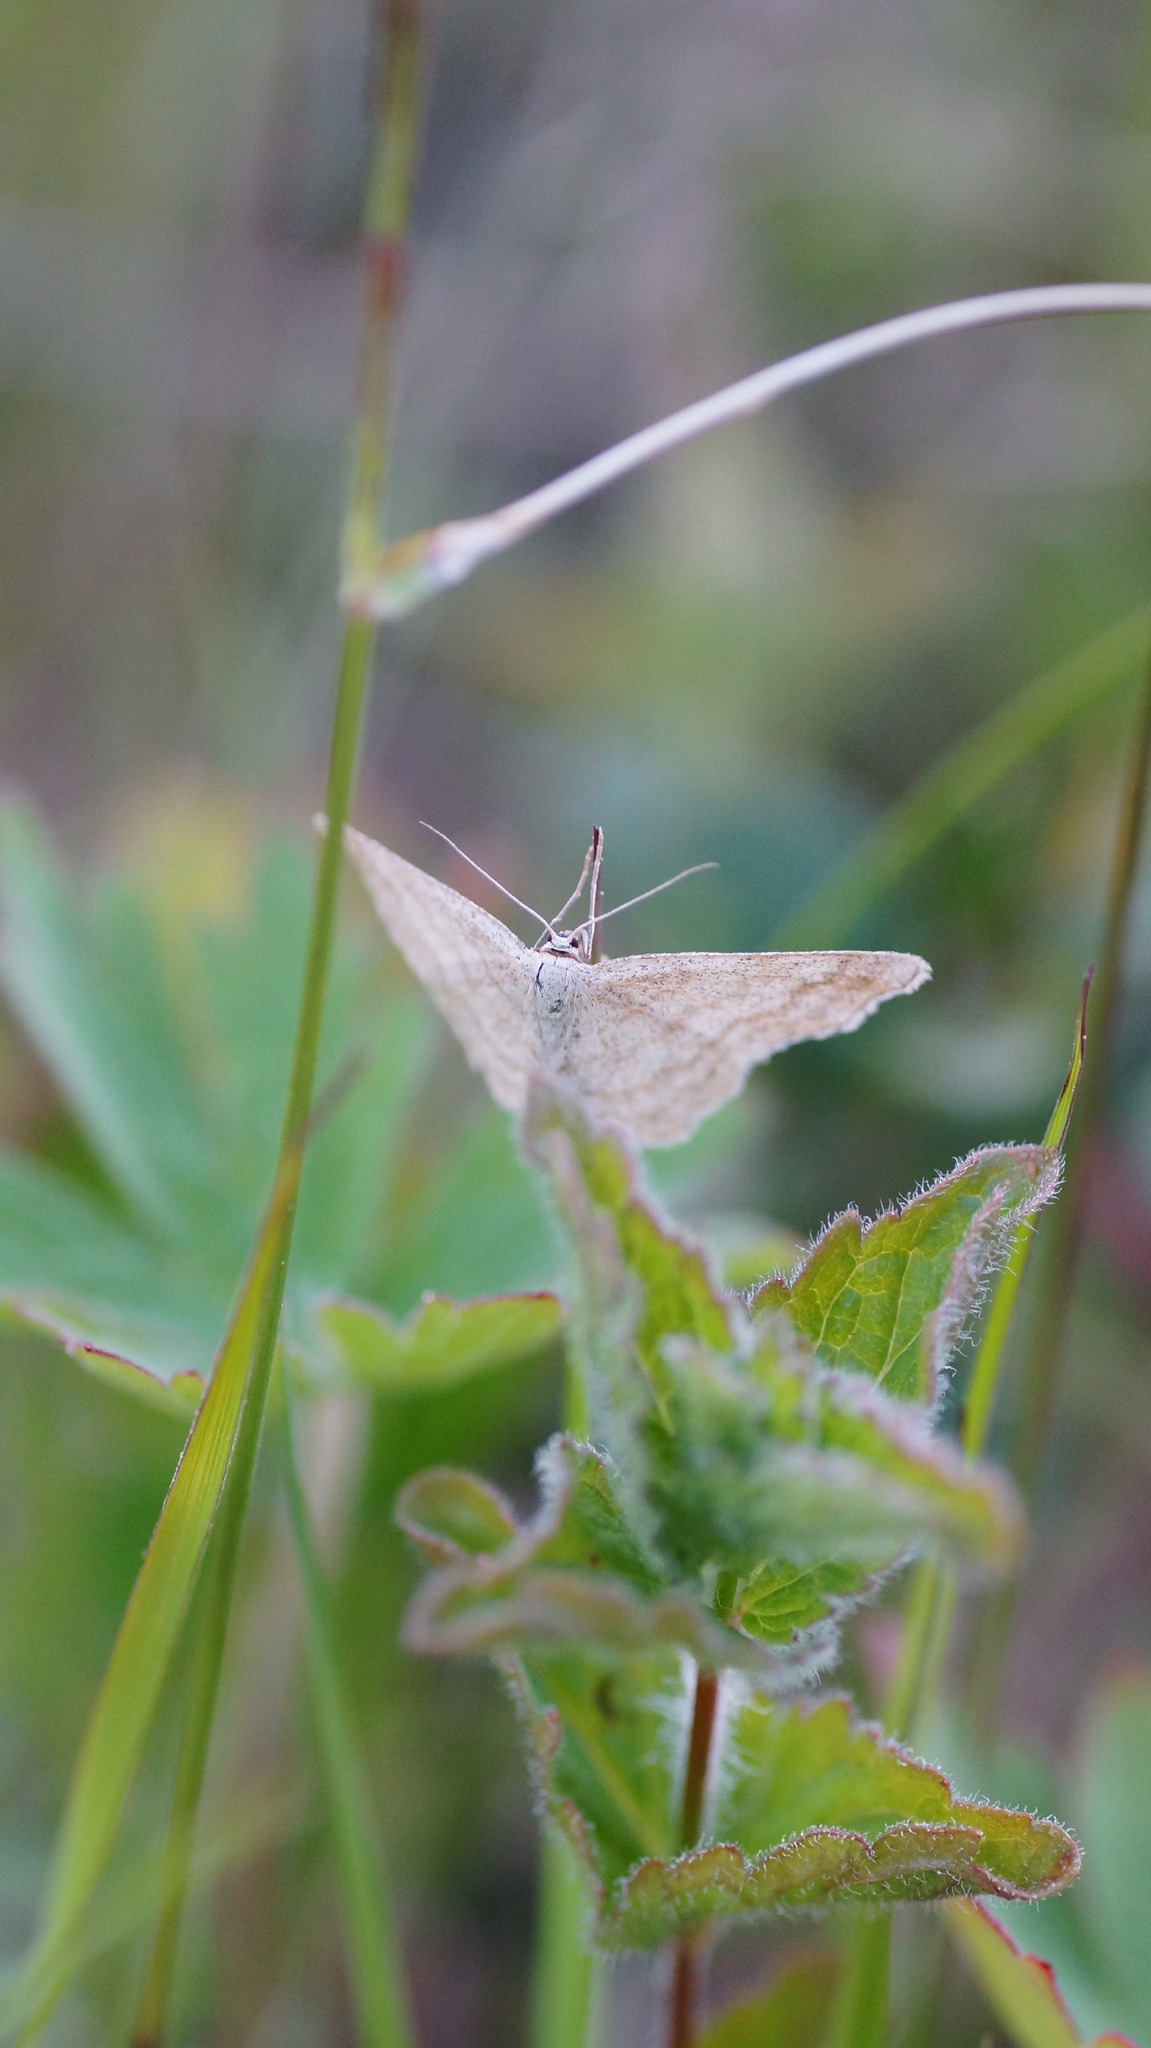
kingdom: Animalia
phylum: Arthropoda
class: Insecta
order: Lepidoptera
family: Geometridae
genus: Scopula
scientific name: Scopula ternata
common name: Smoky wave
